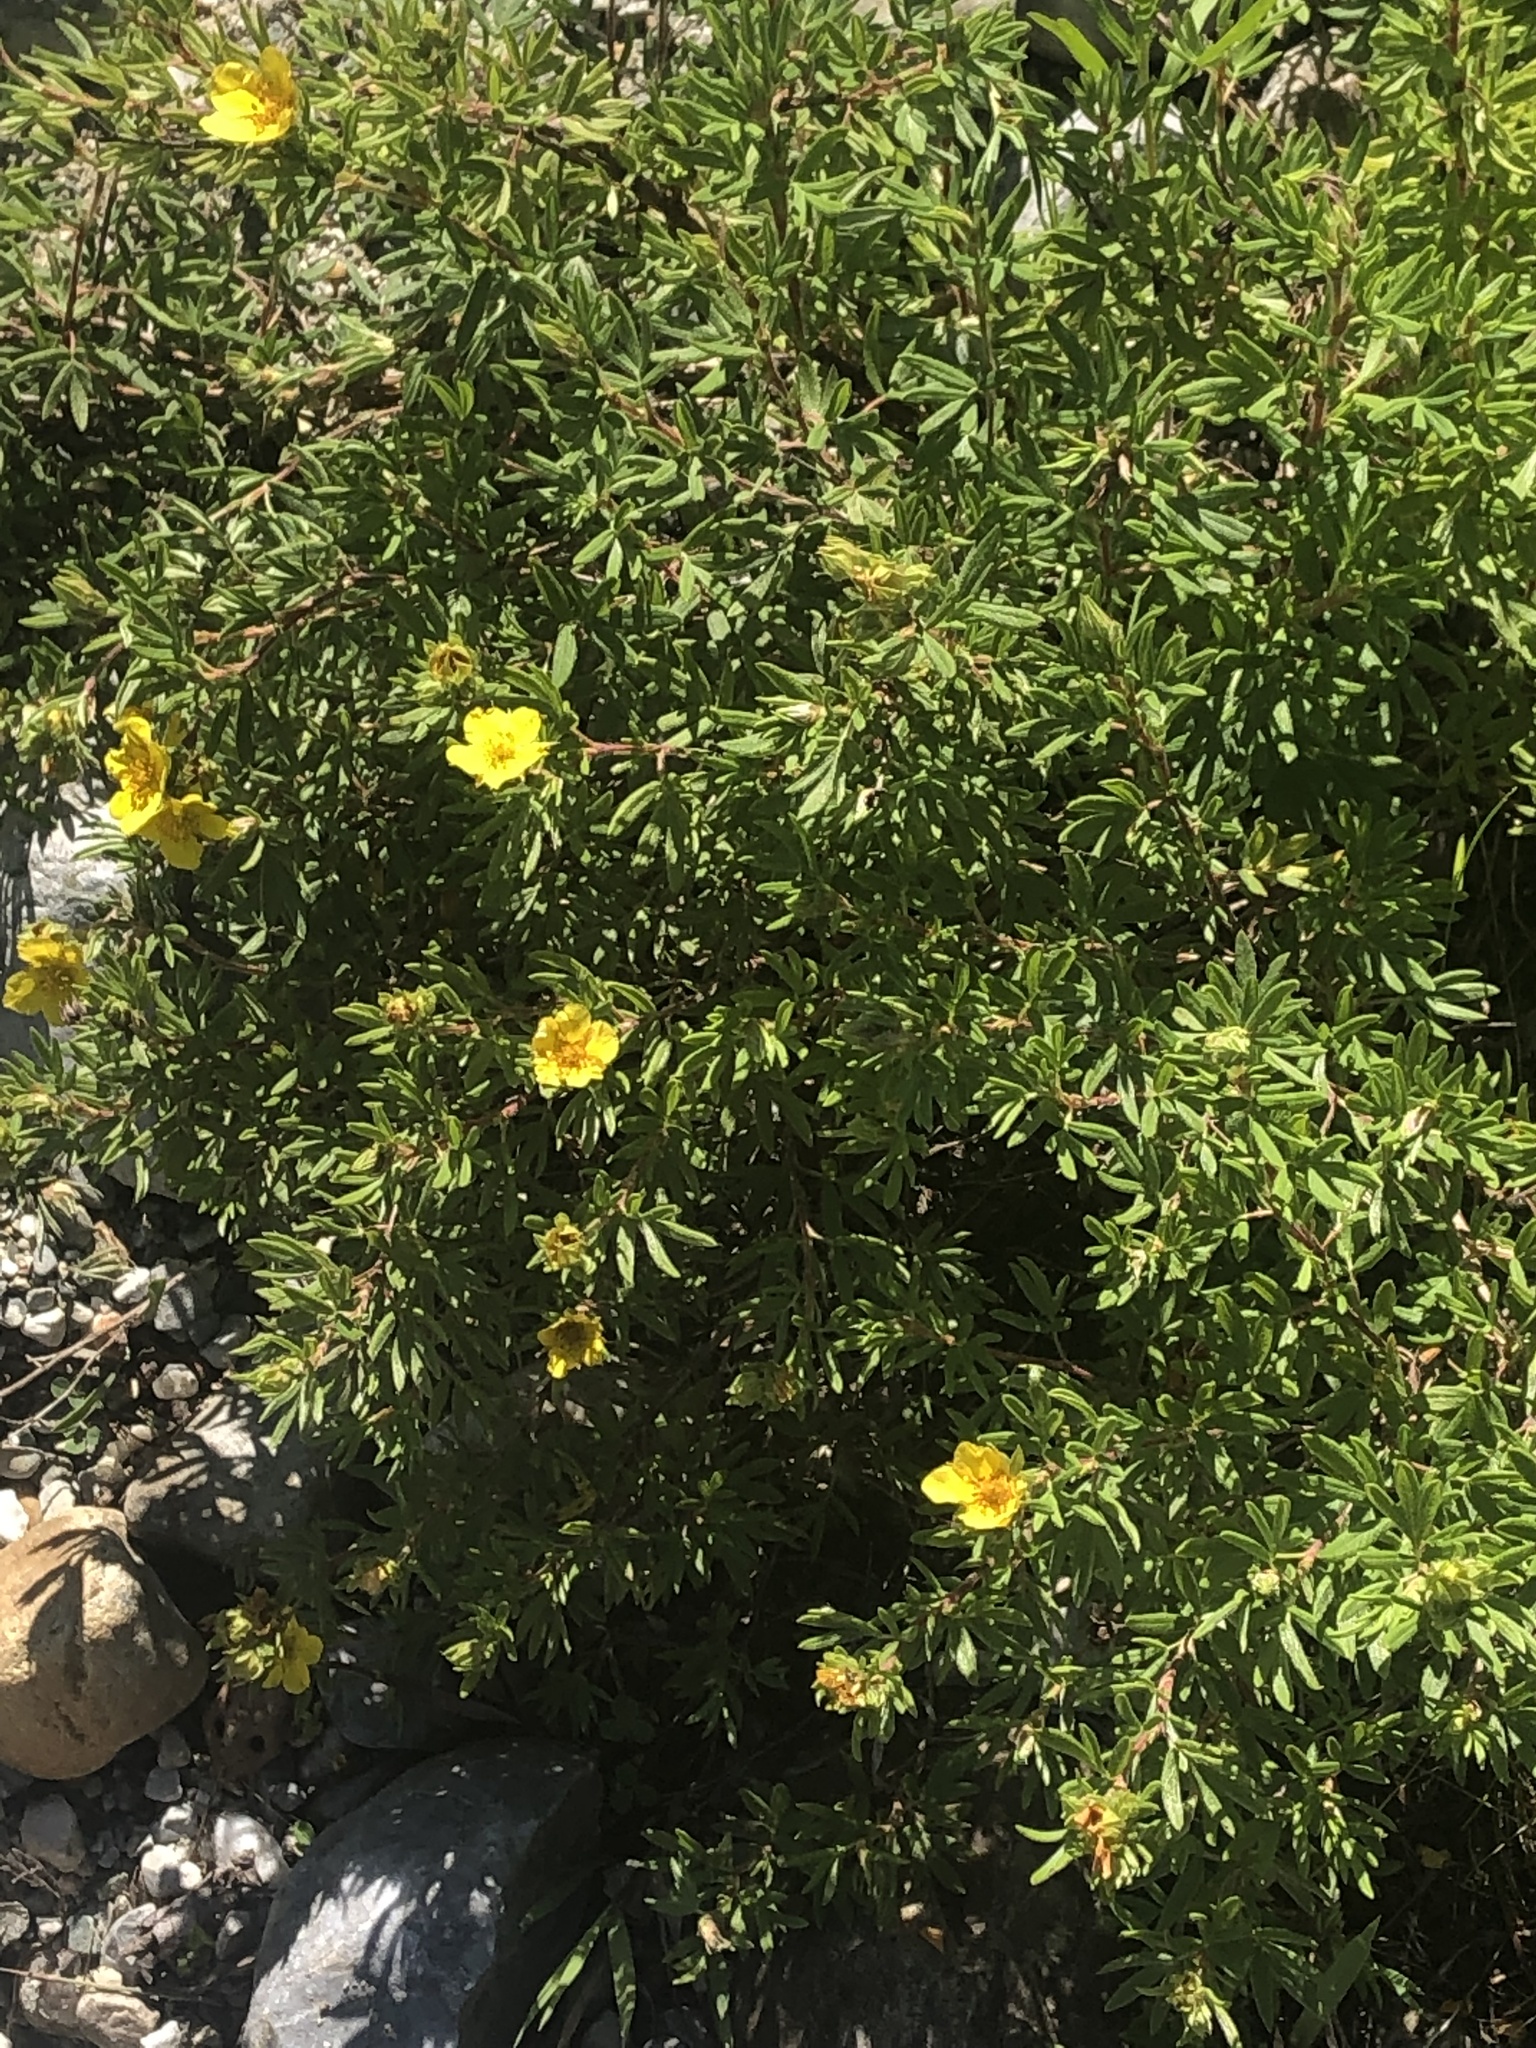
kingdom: Plantae
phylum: Tracheophyta
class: Magnoliopsida
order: Rosales
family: Rosaceae
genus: Dasiphora
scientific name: Dasiphora fruticosa
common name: Shrubby cinquefoil
